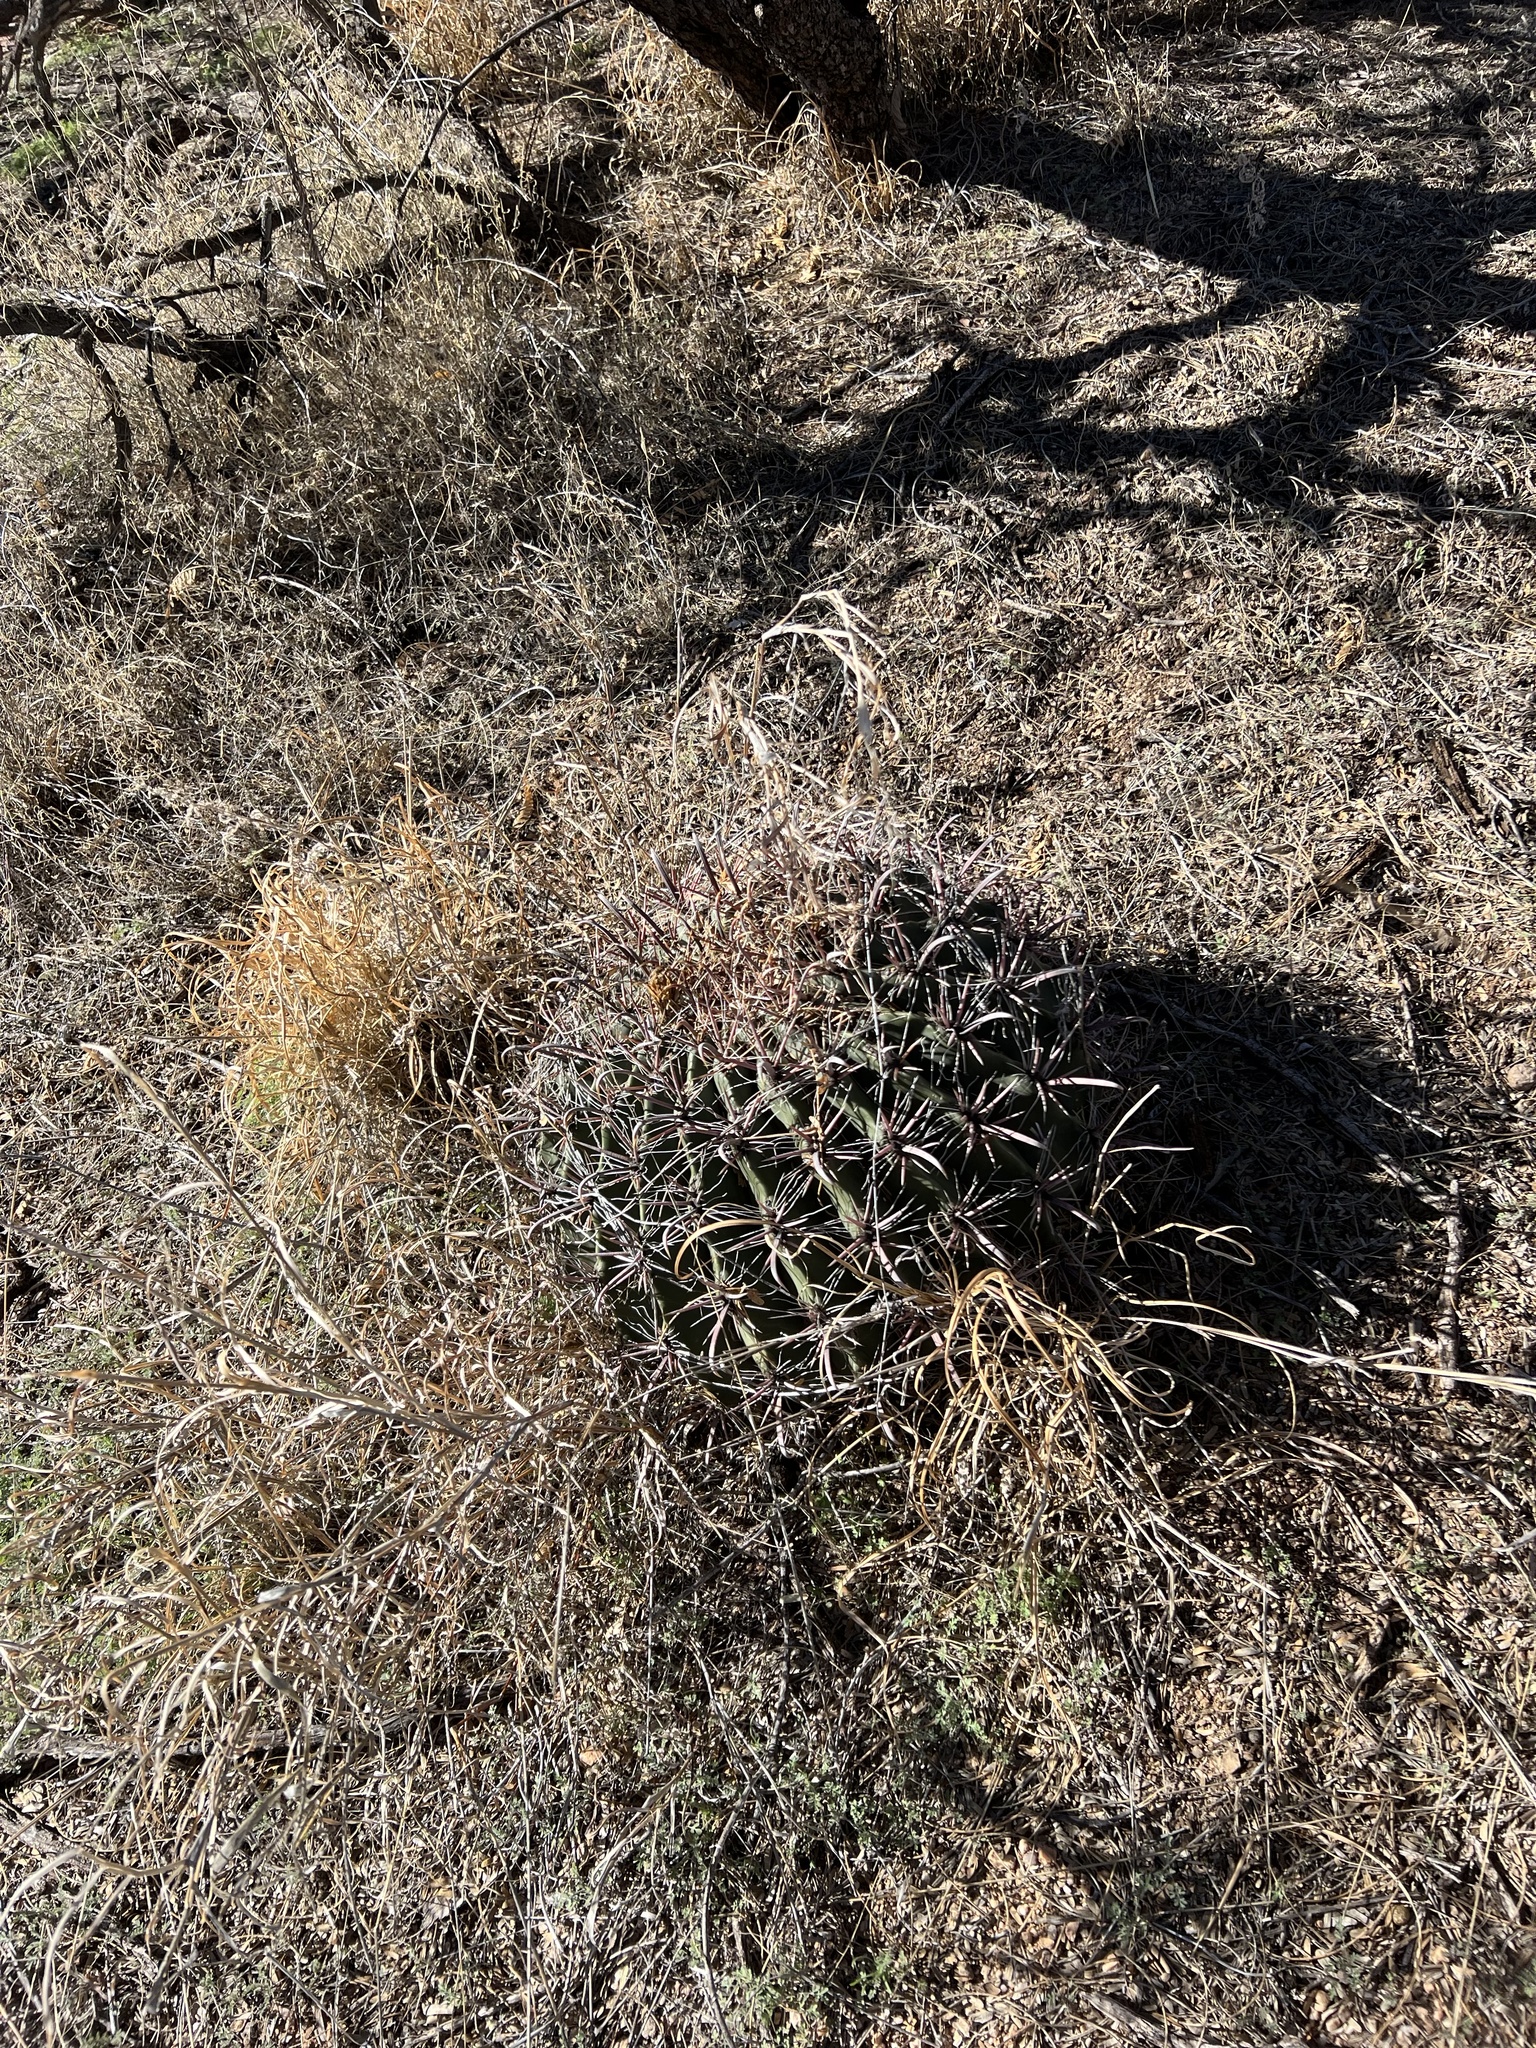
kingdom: Plantae
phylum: Tracheophyta
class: Magnoliopsida
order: Caryophyllales
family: Cactaceae
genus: Ferocactus
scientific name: Ferocactus wislizeni
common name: Candy barrel cactus
